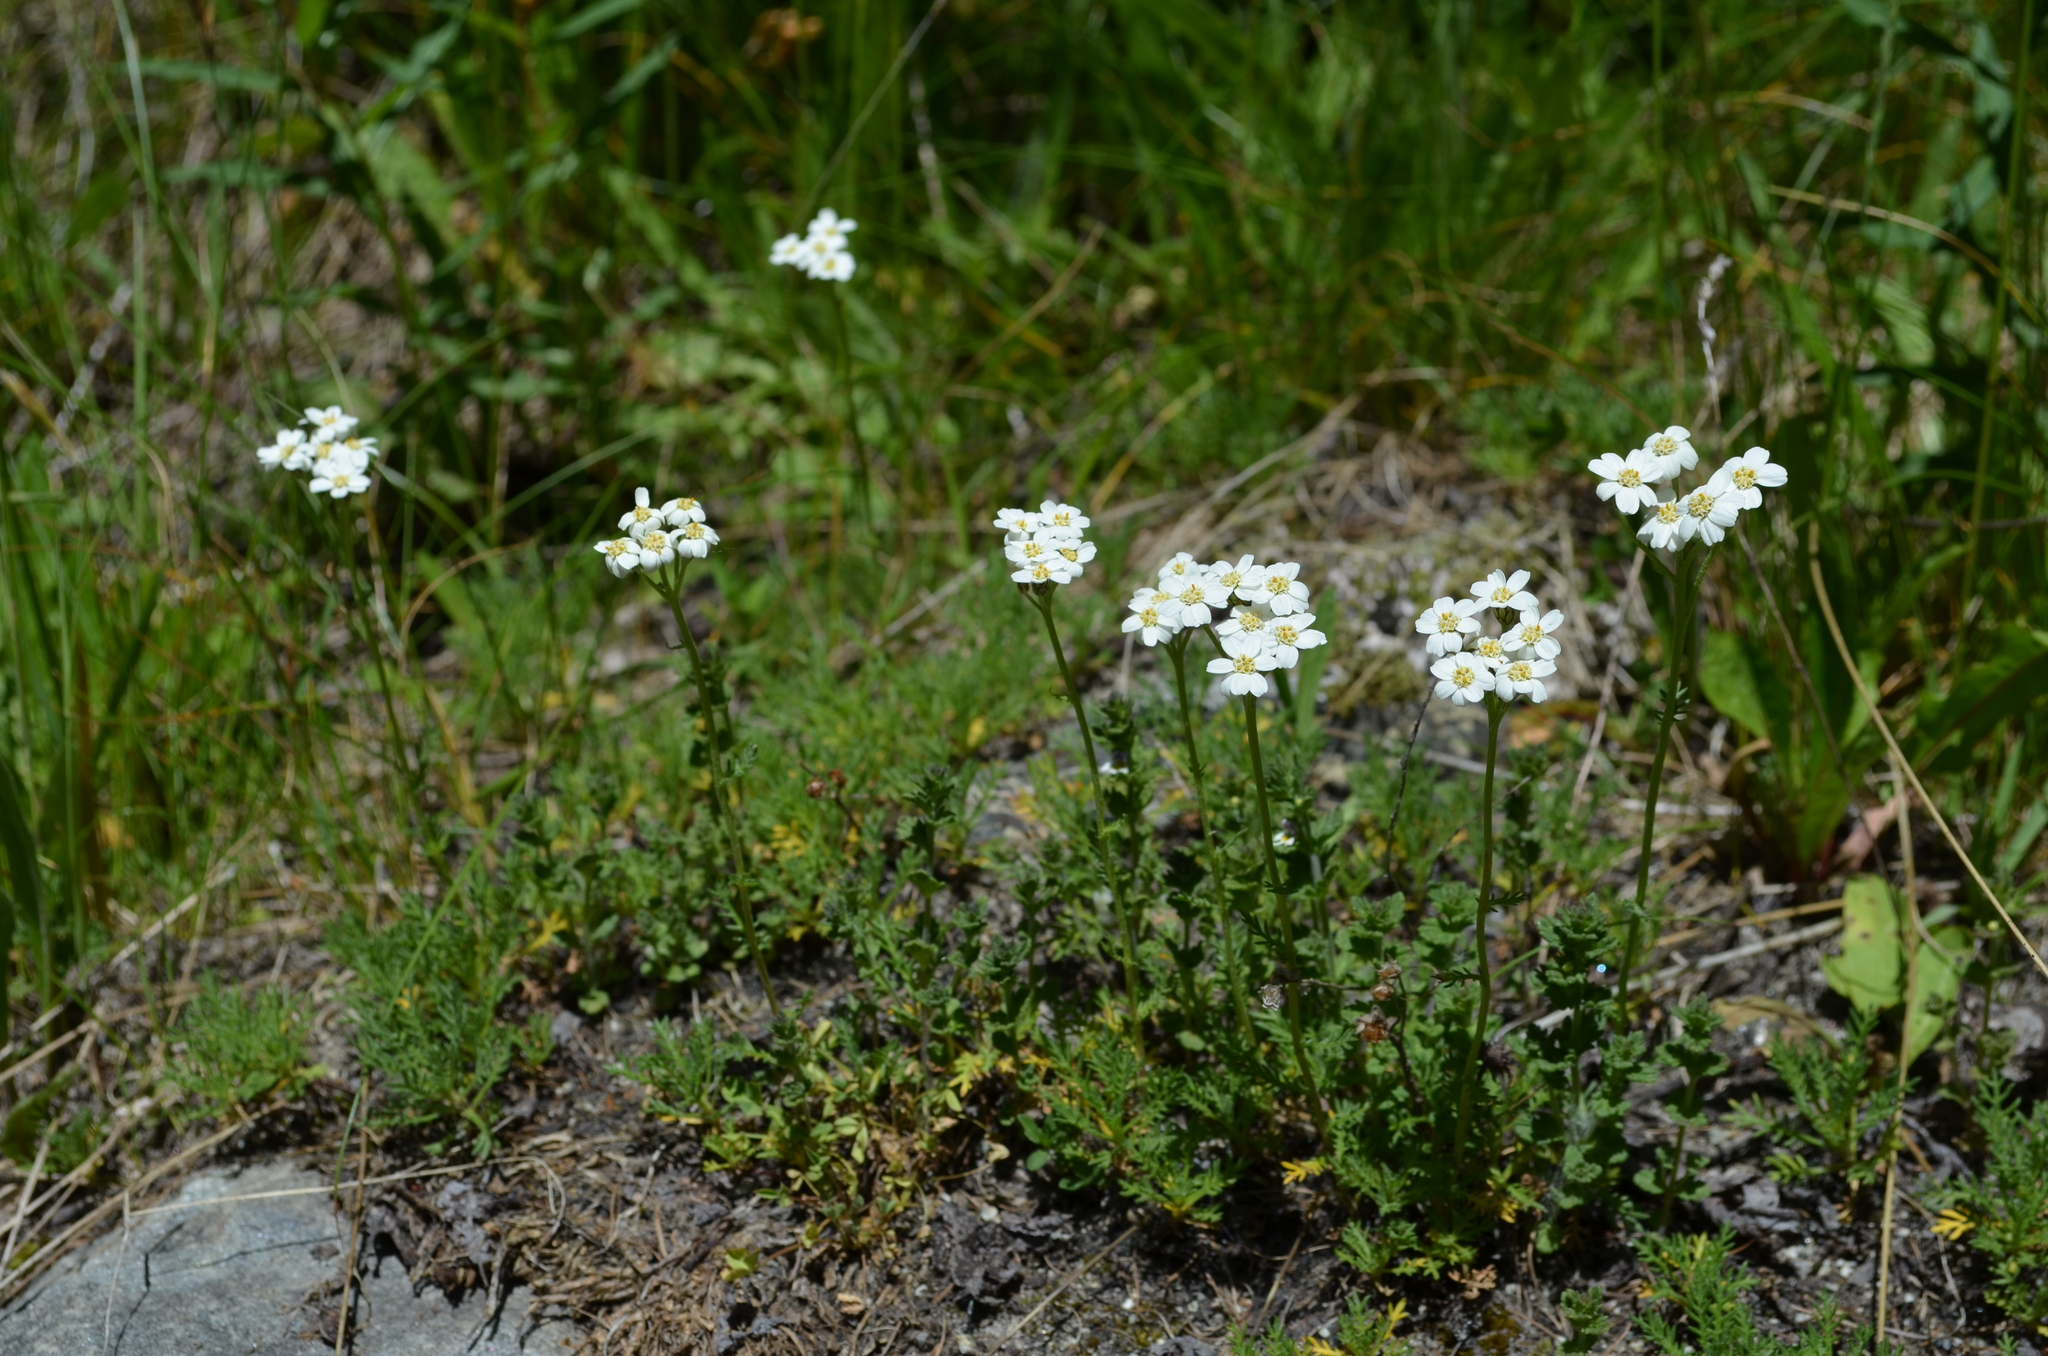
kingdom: Plantae
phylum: Tracheophyta
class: Magnoliopsida
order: Asterales
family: Asteraceae
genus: Achillea
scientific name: Achillea erba-rotta
